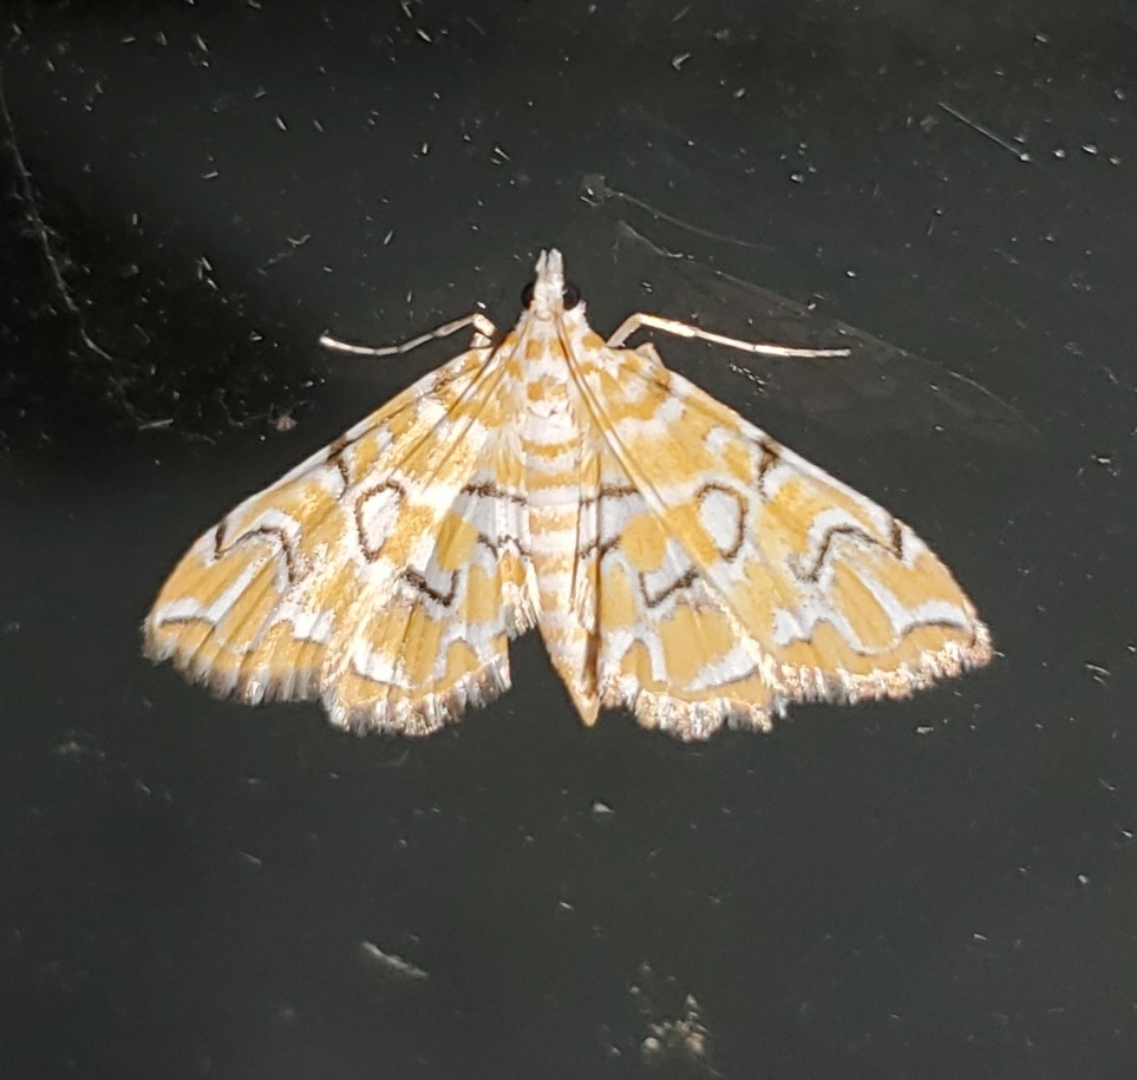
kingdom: Animalia
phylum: Arthropoda
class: Insecta
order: Lepidoptera
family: Crambidae
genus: Elophila
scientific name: Elophila icciusalis
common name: Pondside pyralid moth
